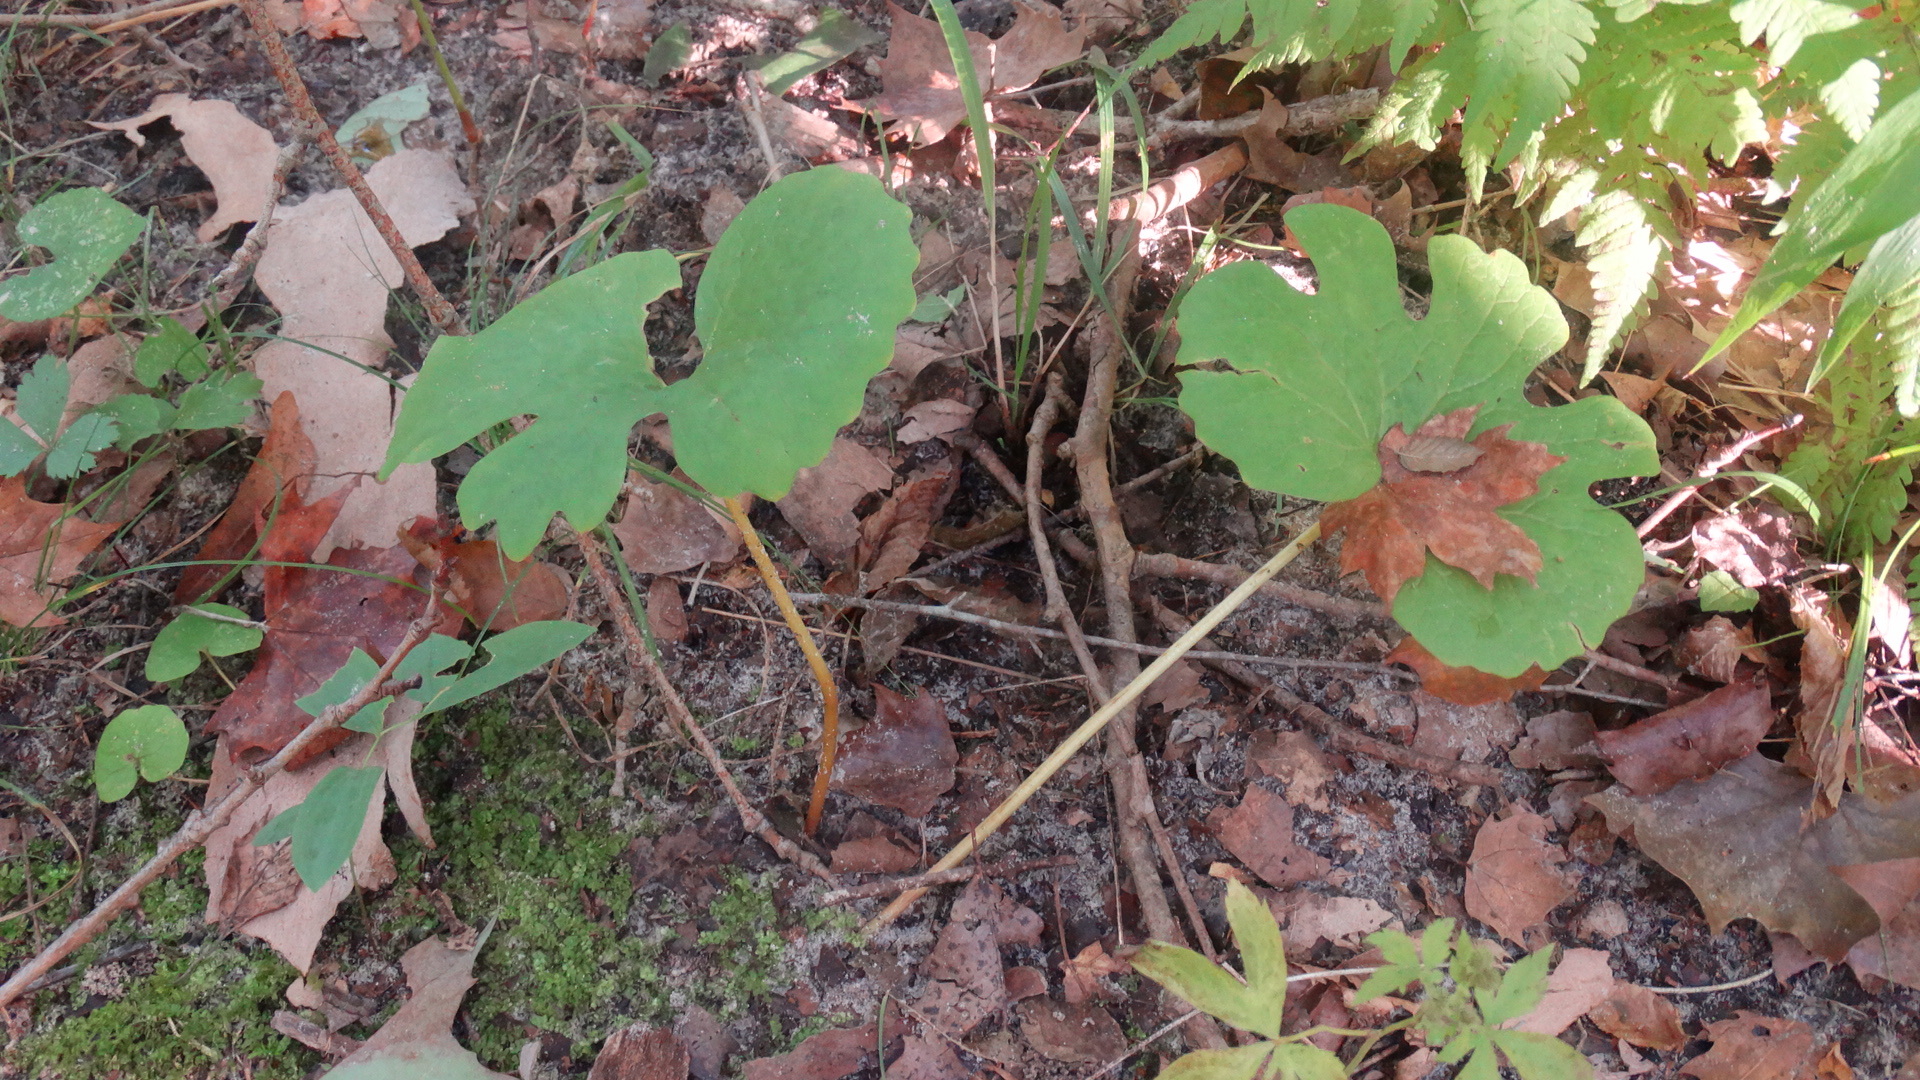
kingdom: Plantae
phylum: Tracheophyta
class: Magnoliopsida
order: Ranunculales
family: Papaveraceae
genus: Sanguinaria
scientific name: Sanguinaria canadensis
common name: Bloodroot
